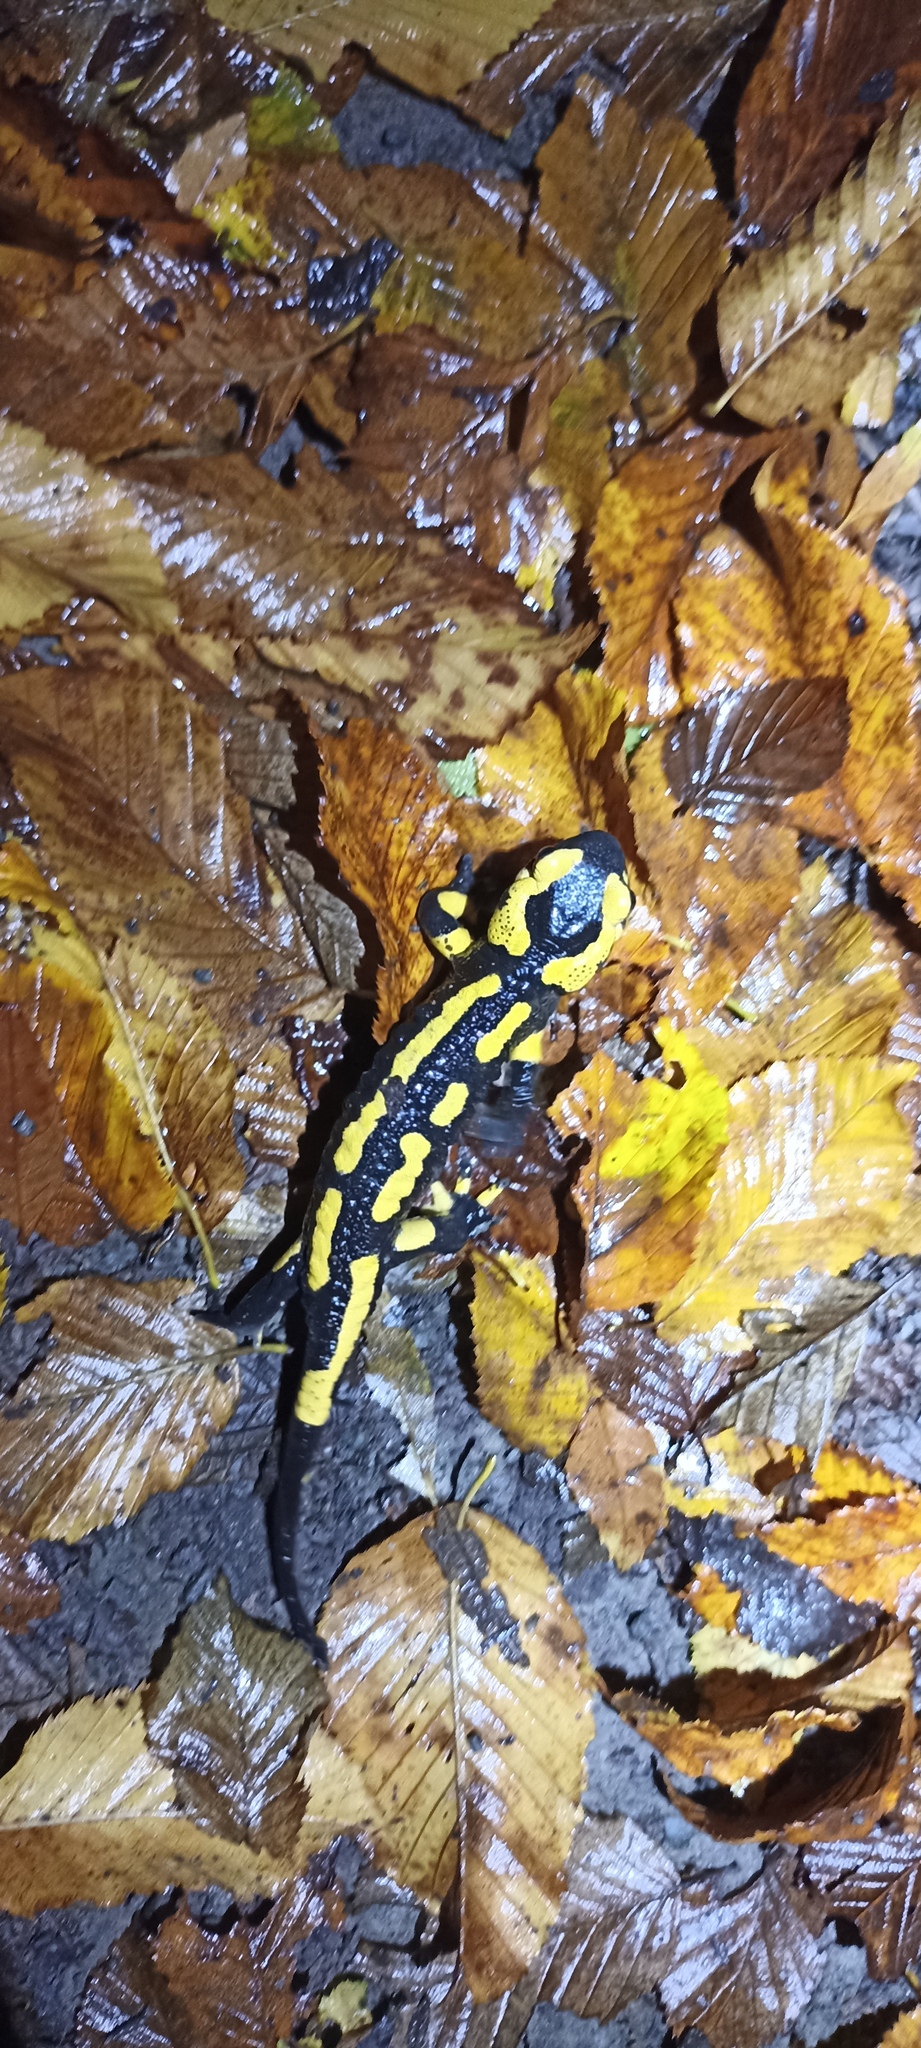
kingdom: Animalia
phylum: Chordata
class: Amphibia
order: Caudata
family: Salamandridae
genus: Salamandra
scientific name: Salamandra salamandra
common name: Fire salamander
